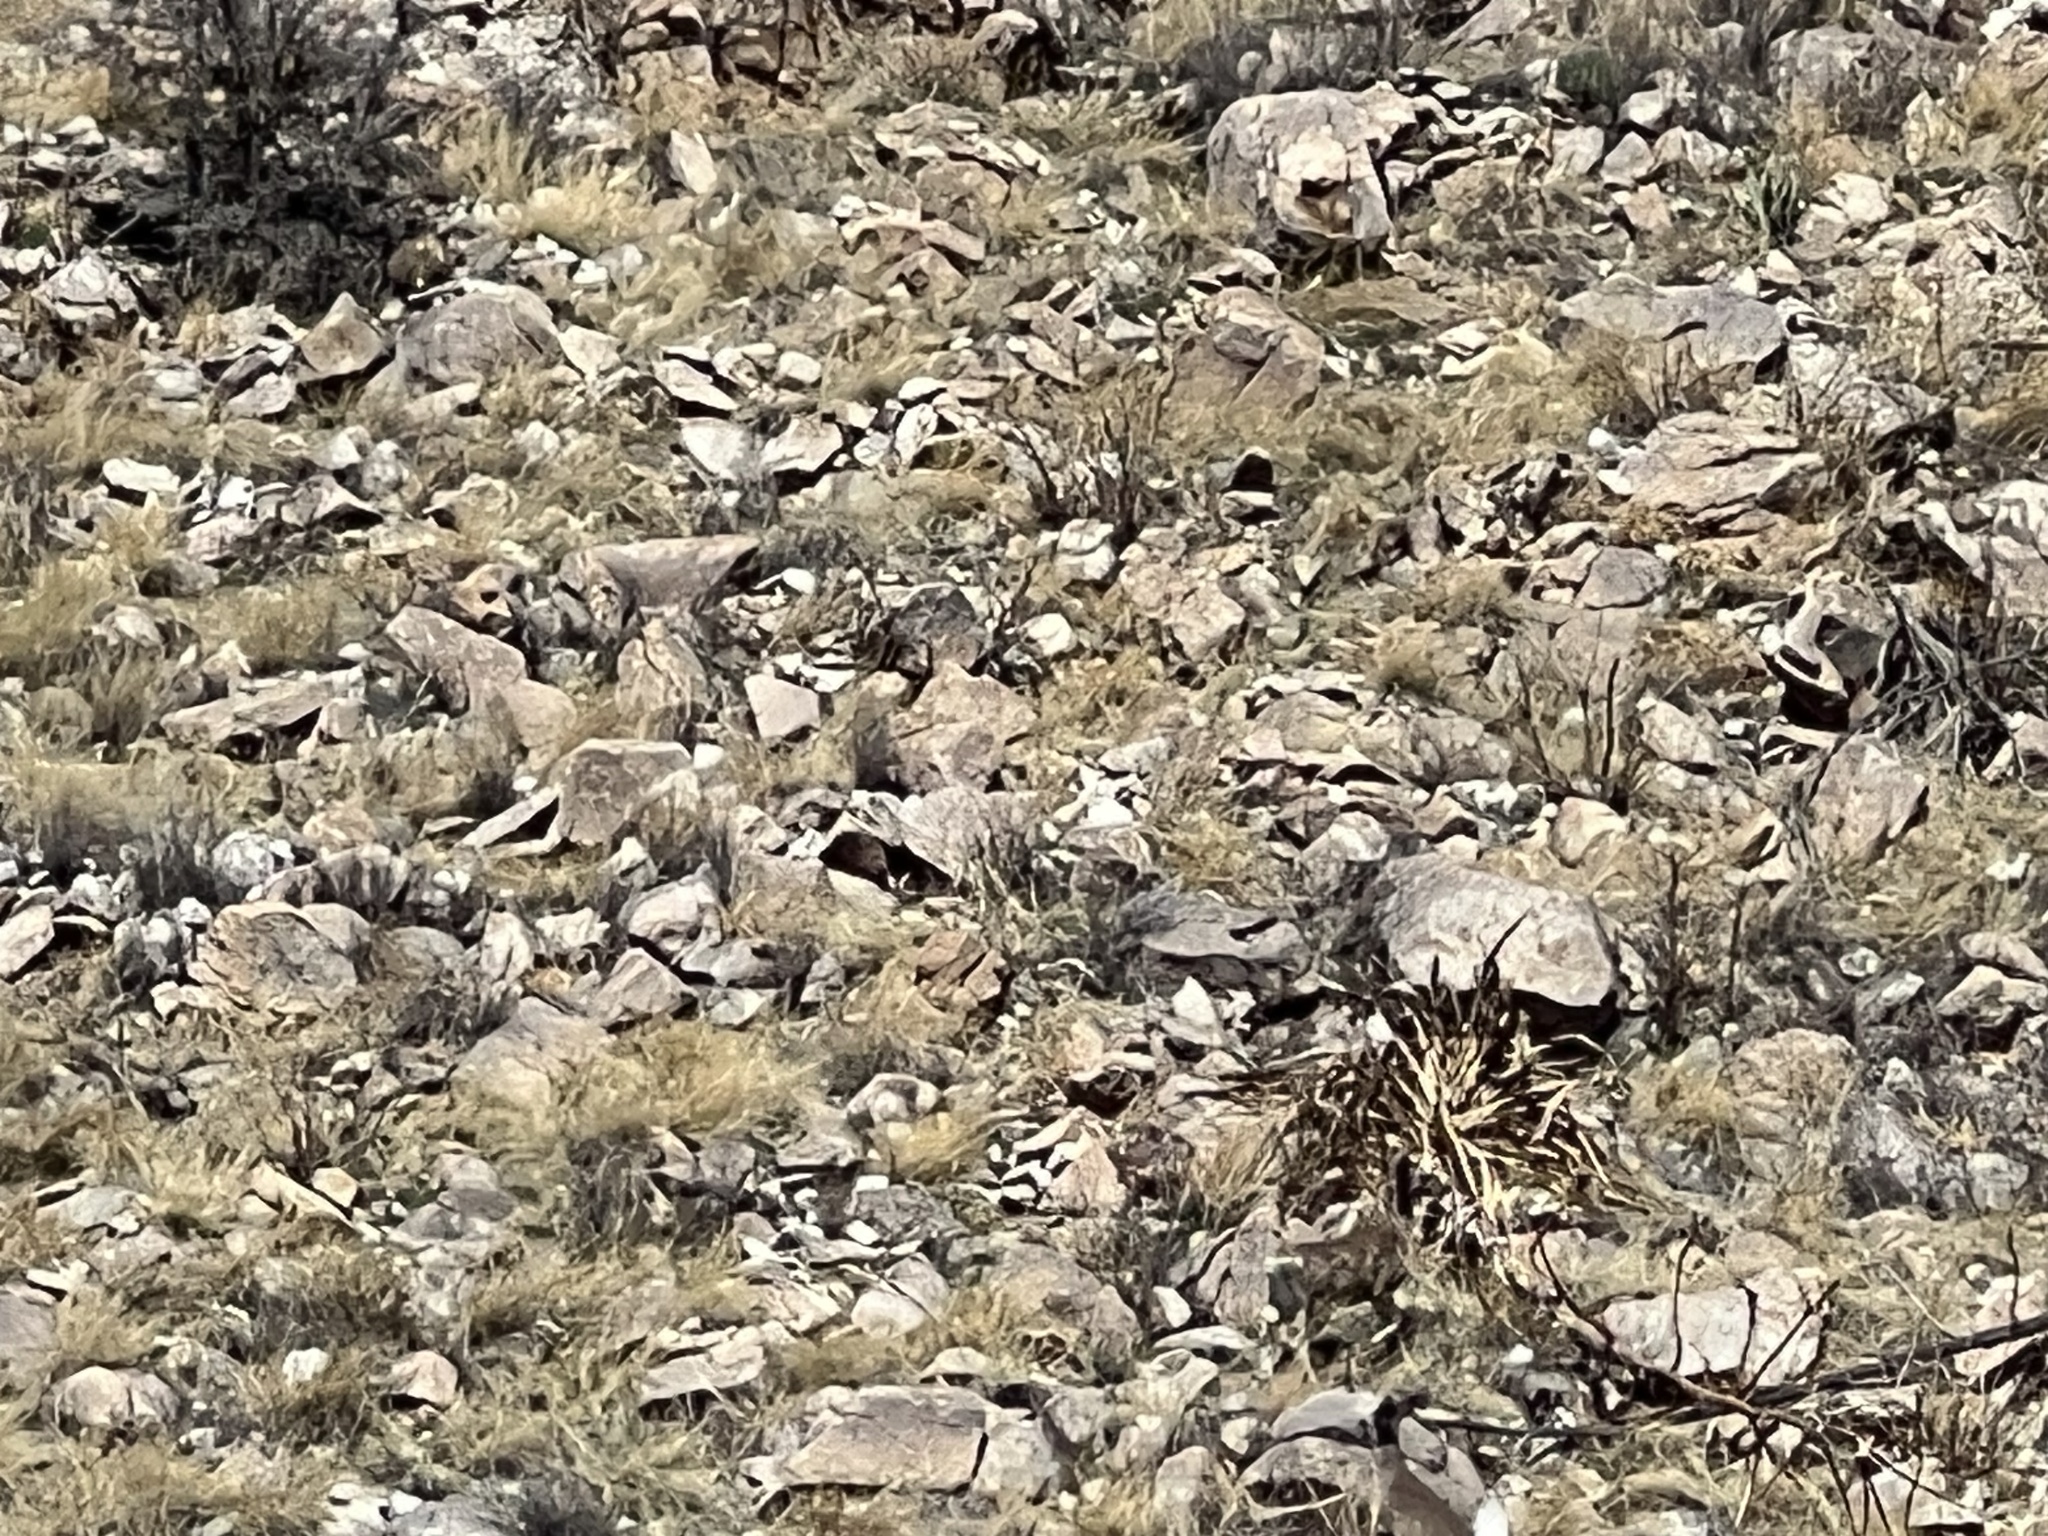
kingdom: Animalia
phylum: Chordata
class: Mammalia
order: Artiodactyla
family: Cervidae
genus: Odocoileus
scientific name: Odocoileus virginianus
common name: White-tailed deer
